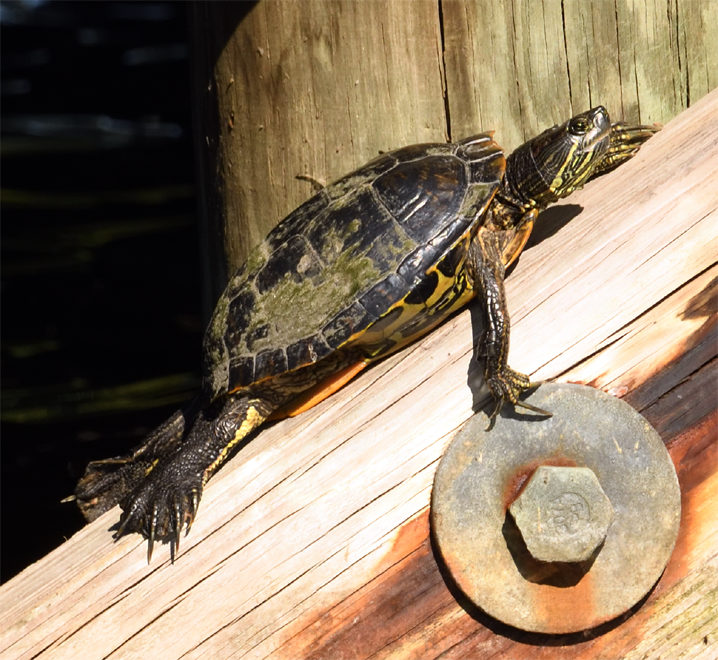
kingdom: Animalia
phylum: Chordata
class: Testudines
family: Emydidae
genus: Trachemys
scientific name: Trachemys scripta
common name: Slider
